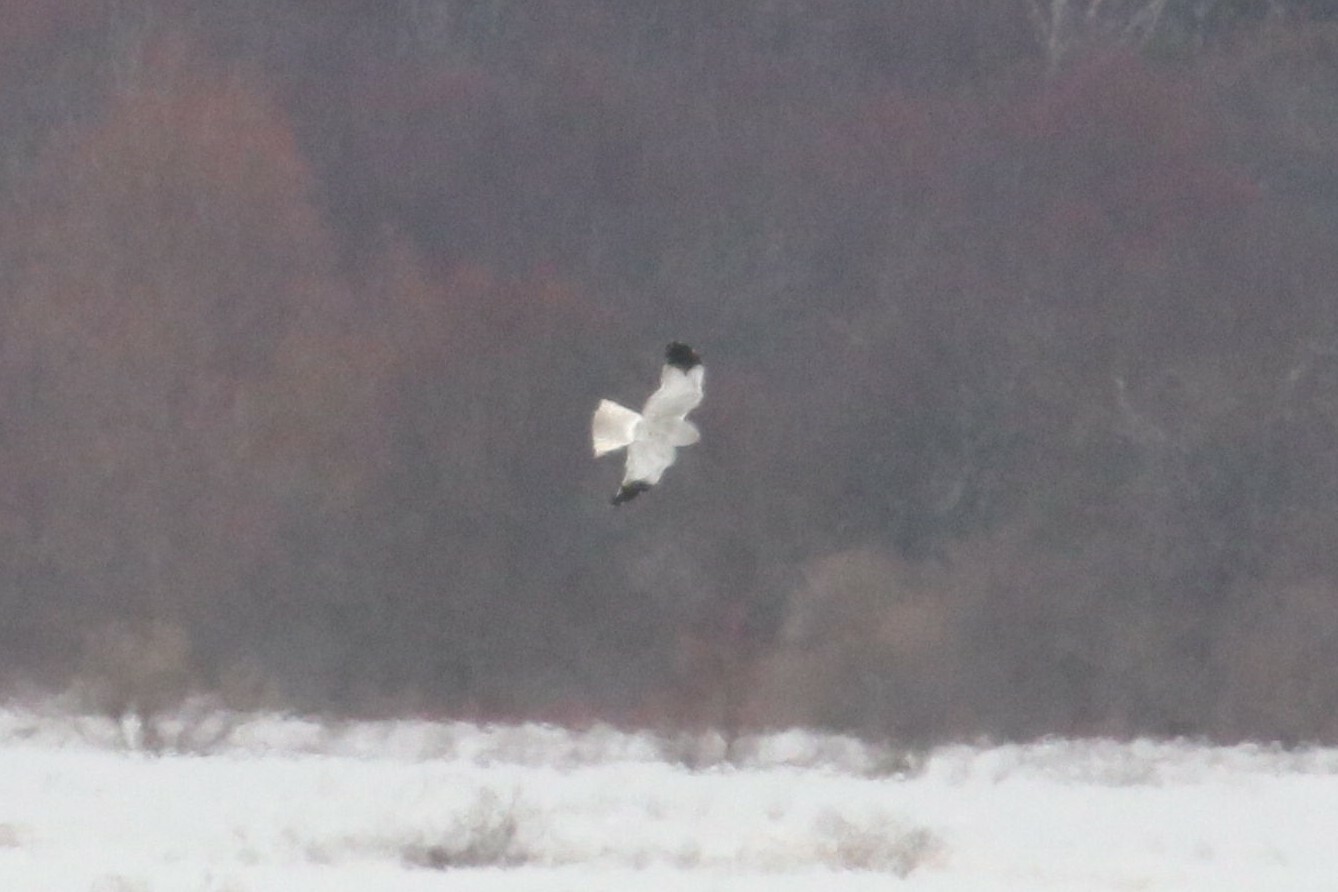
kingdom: Animalia
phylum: Chordata
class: Aves
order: Accipitriformes
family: Accipitridae
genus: Circus
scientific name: Circus cyaneus
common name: Hen harrier
